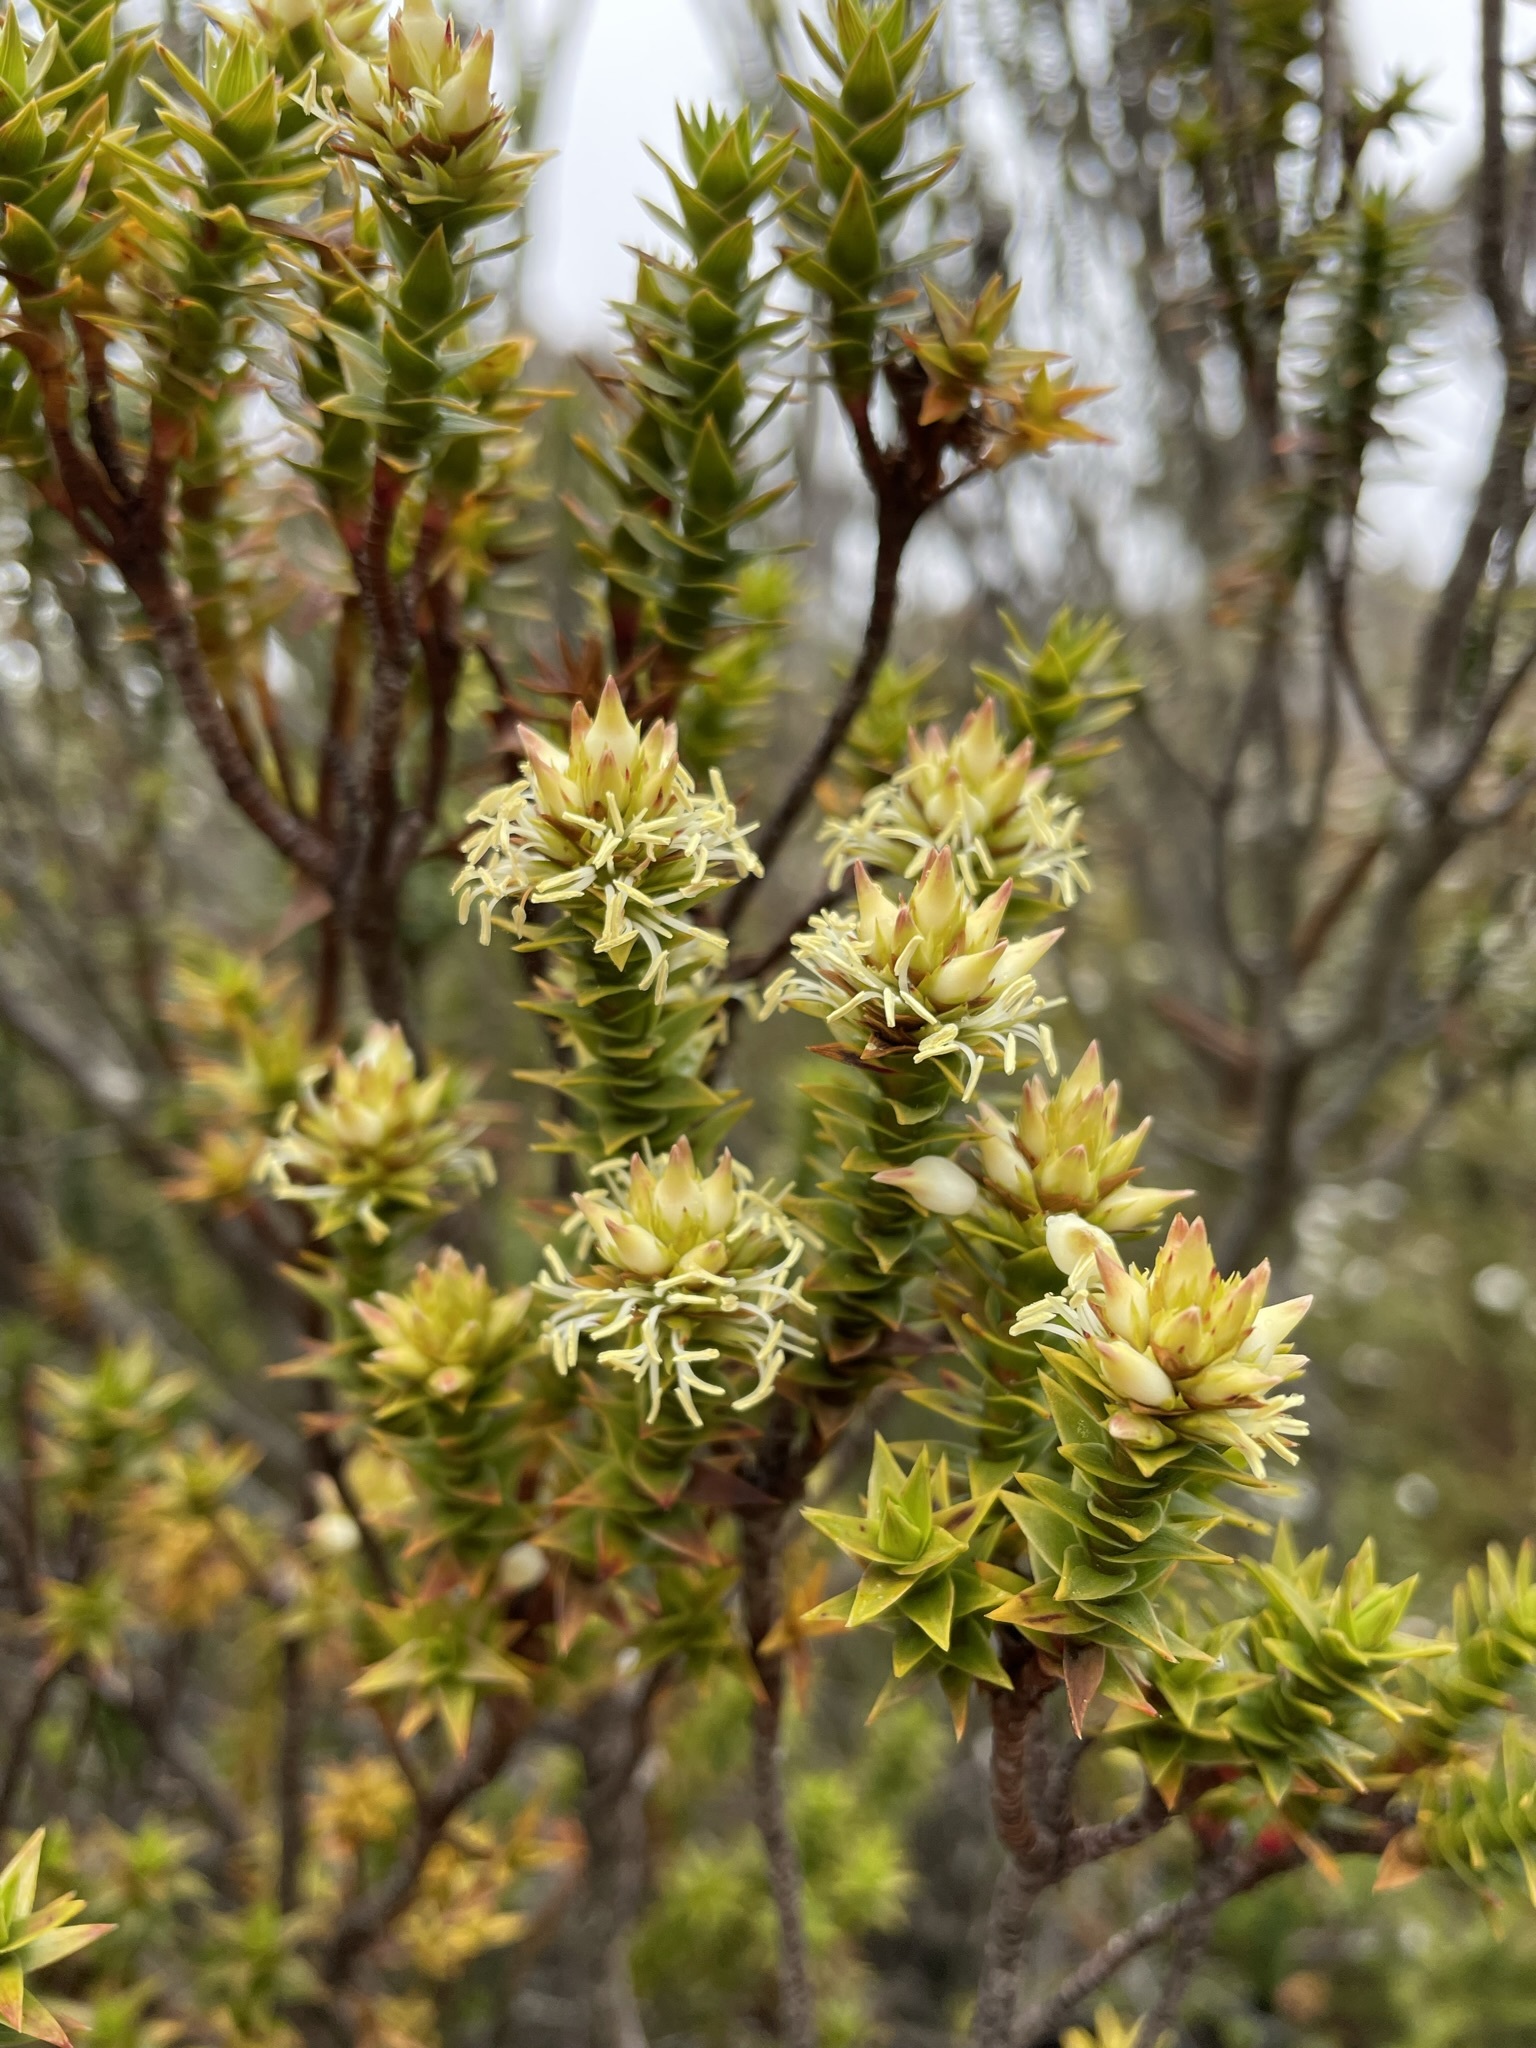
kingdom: Plantae
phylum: Tracheophyta
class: Magnoliopsida
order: Ericales
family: Ericaceae
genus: Dracophyllum
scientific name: Dracophyllum sprengelioides
